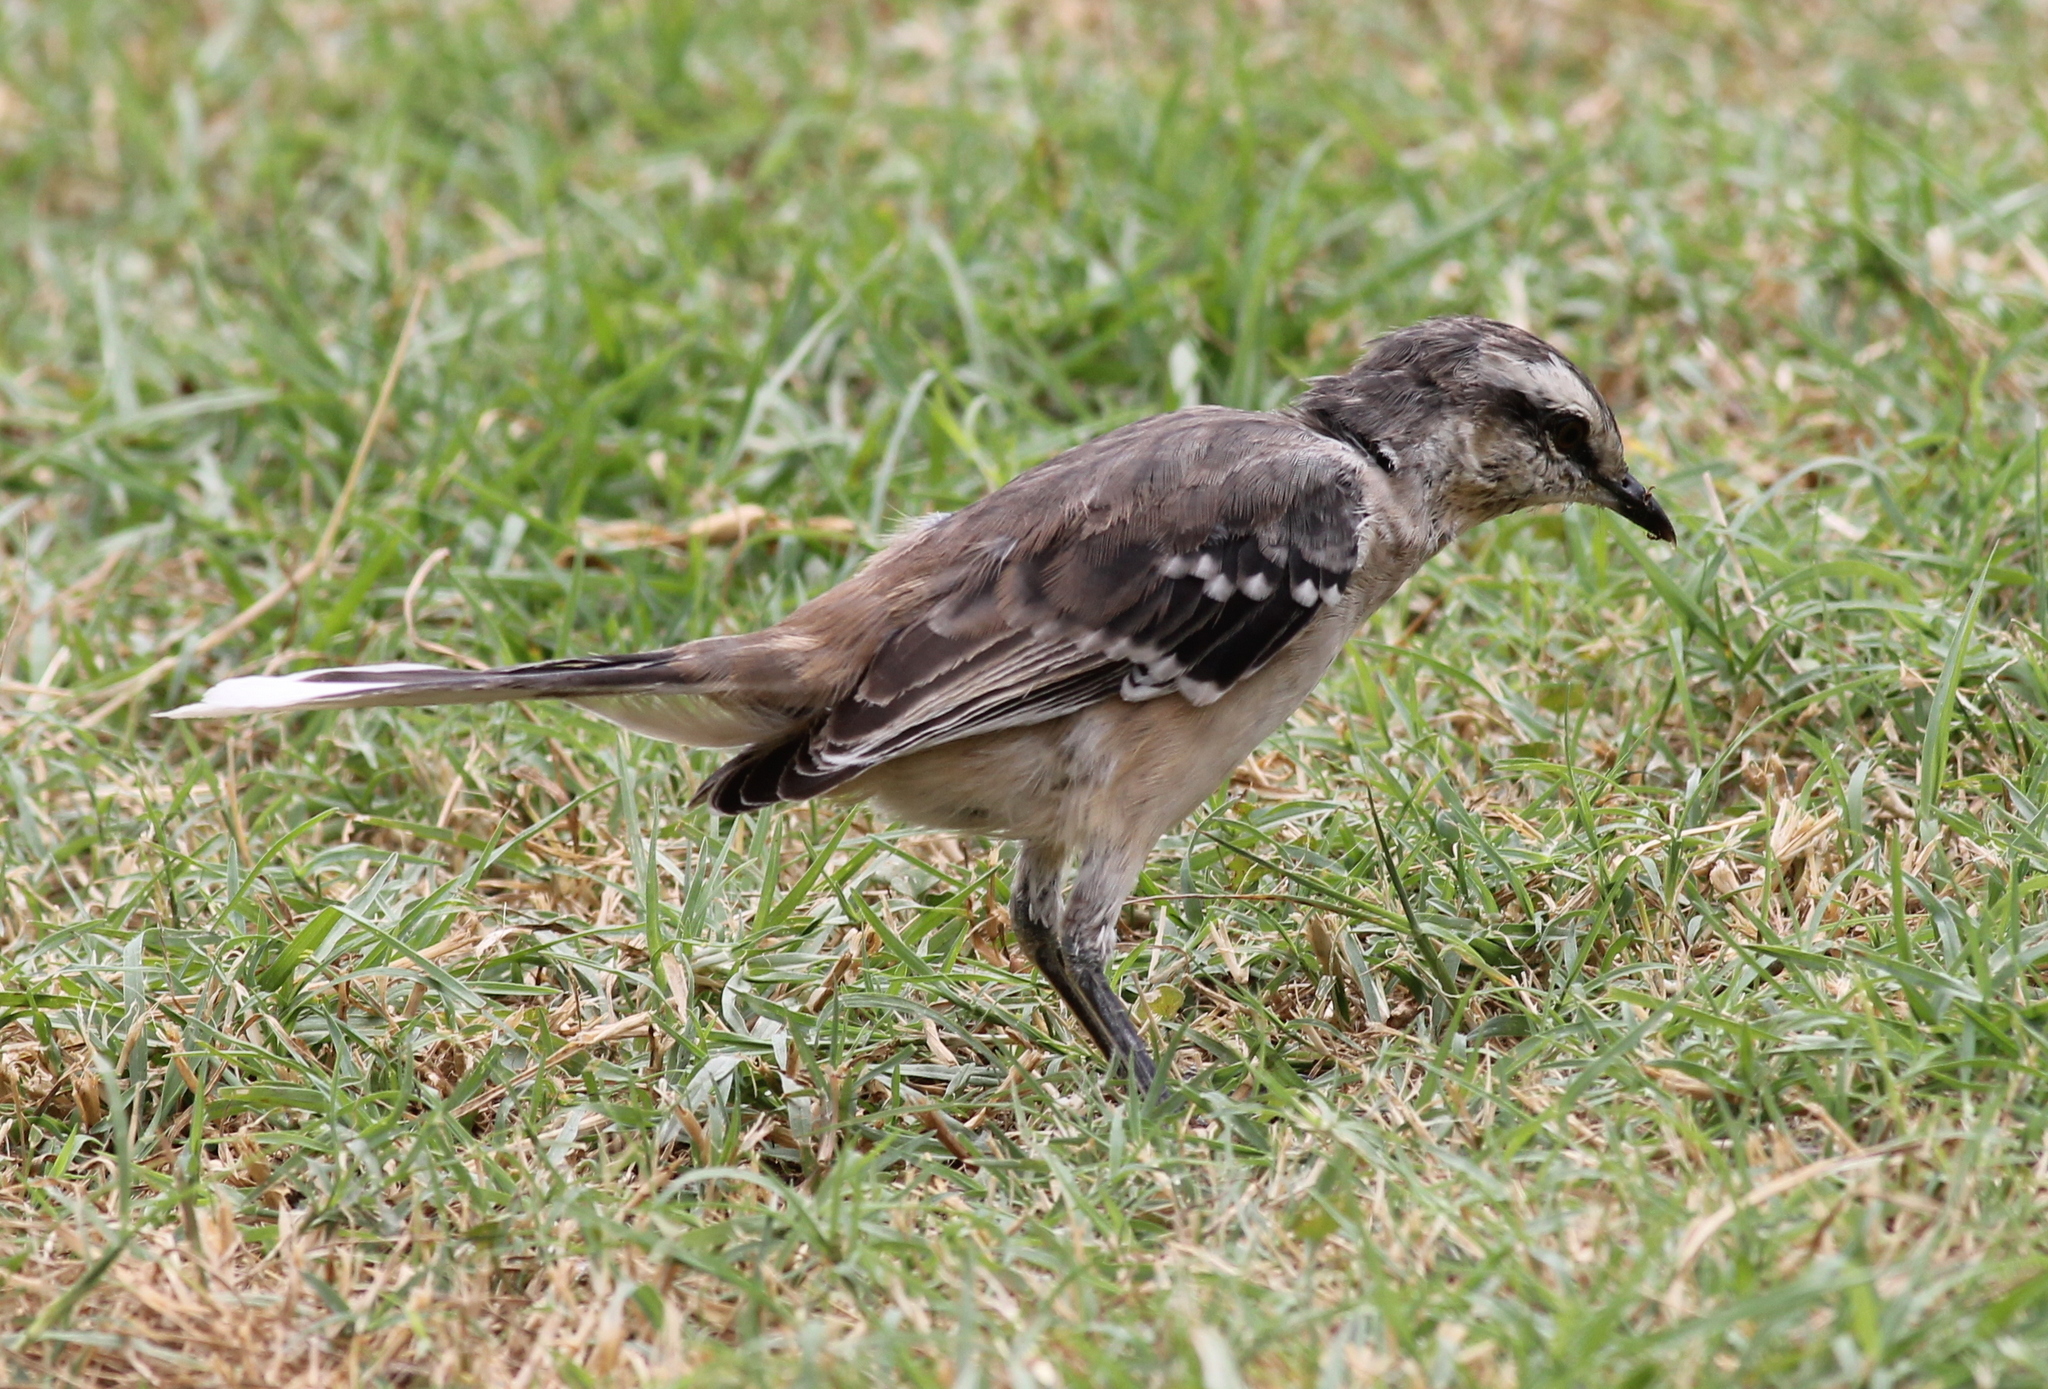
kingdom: Animalia
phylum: Chordata
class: Aves
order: Passeriformes
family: Mimidae
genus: Mimus
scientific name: Mimus saturninus
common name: Chalk-browed mockingbird
